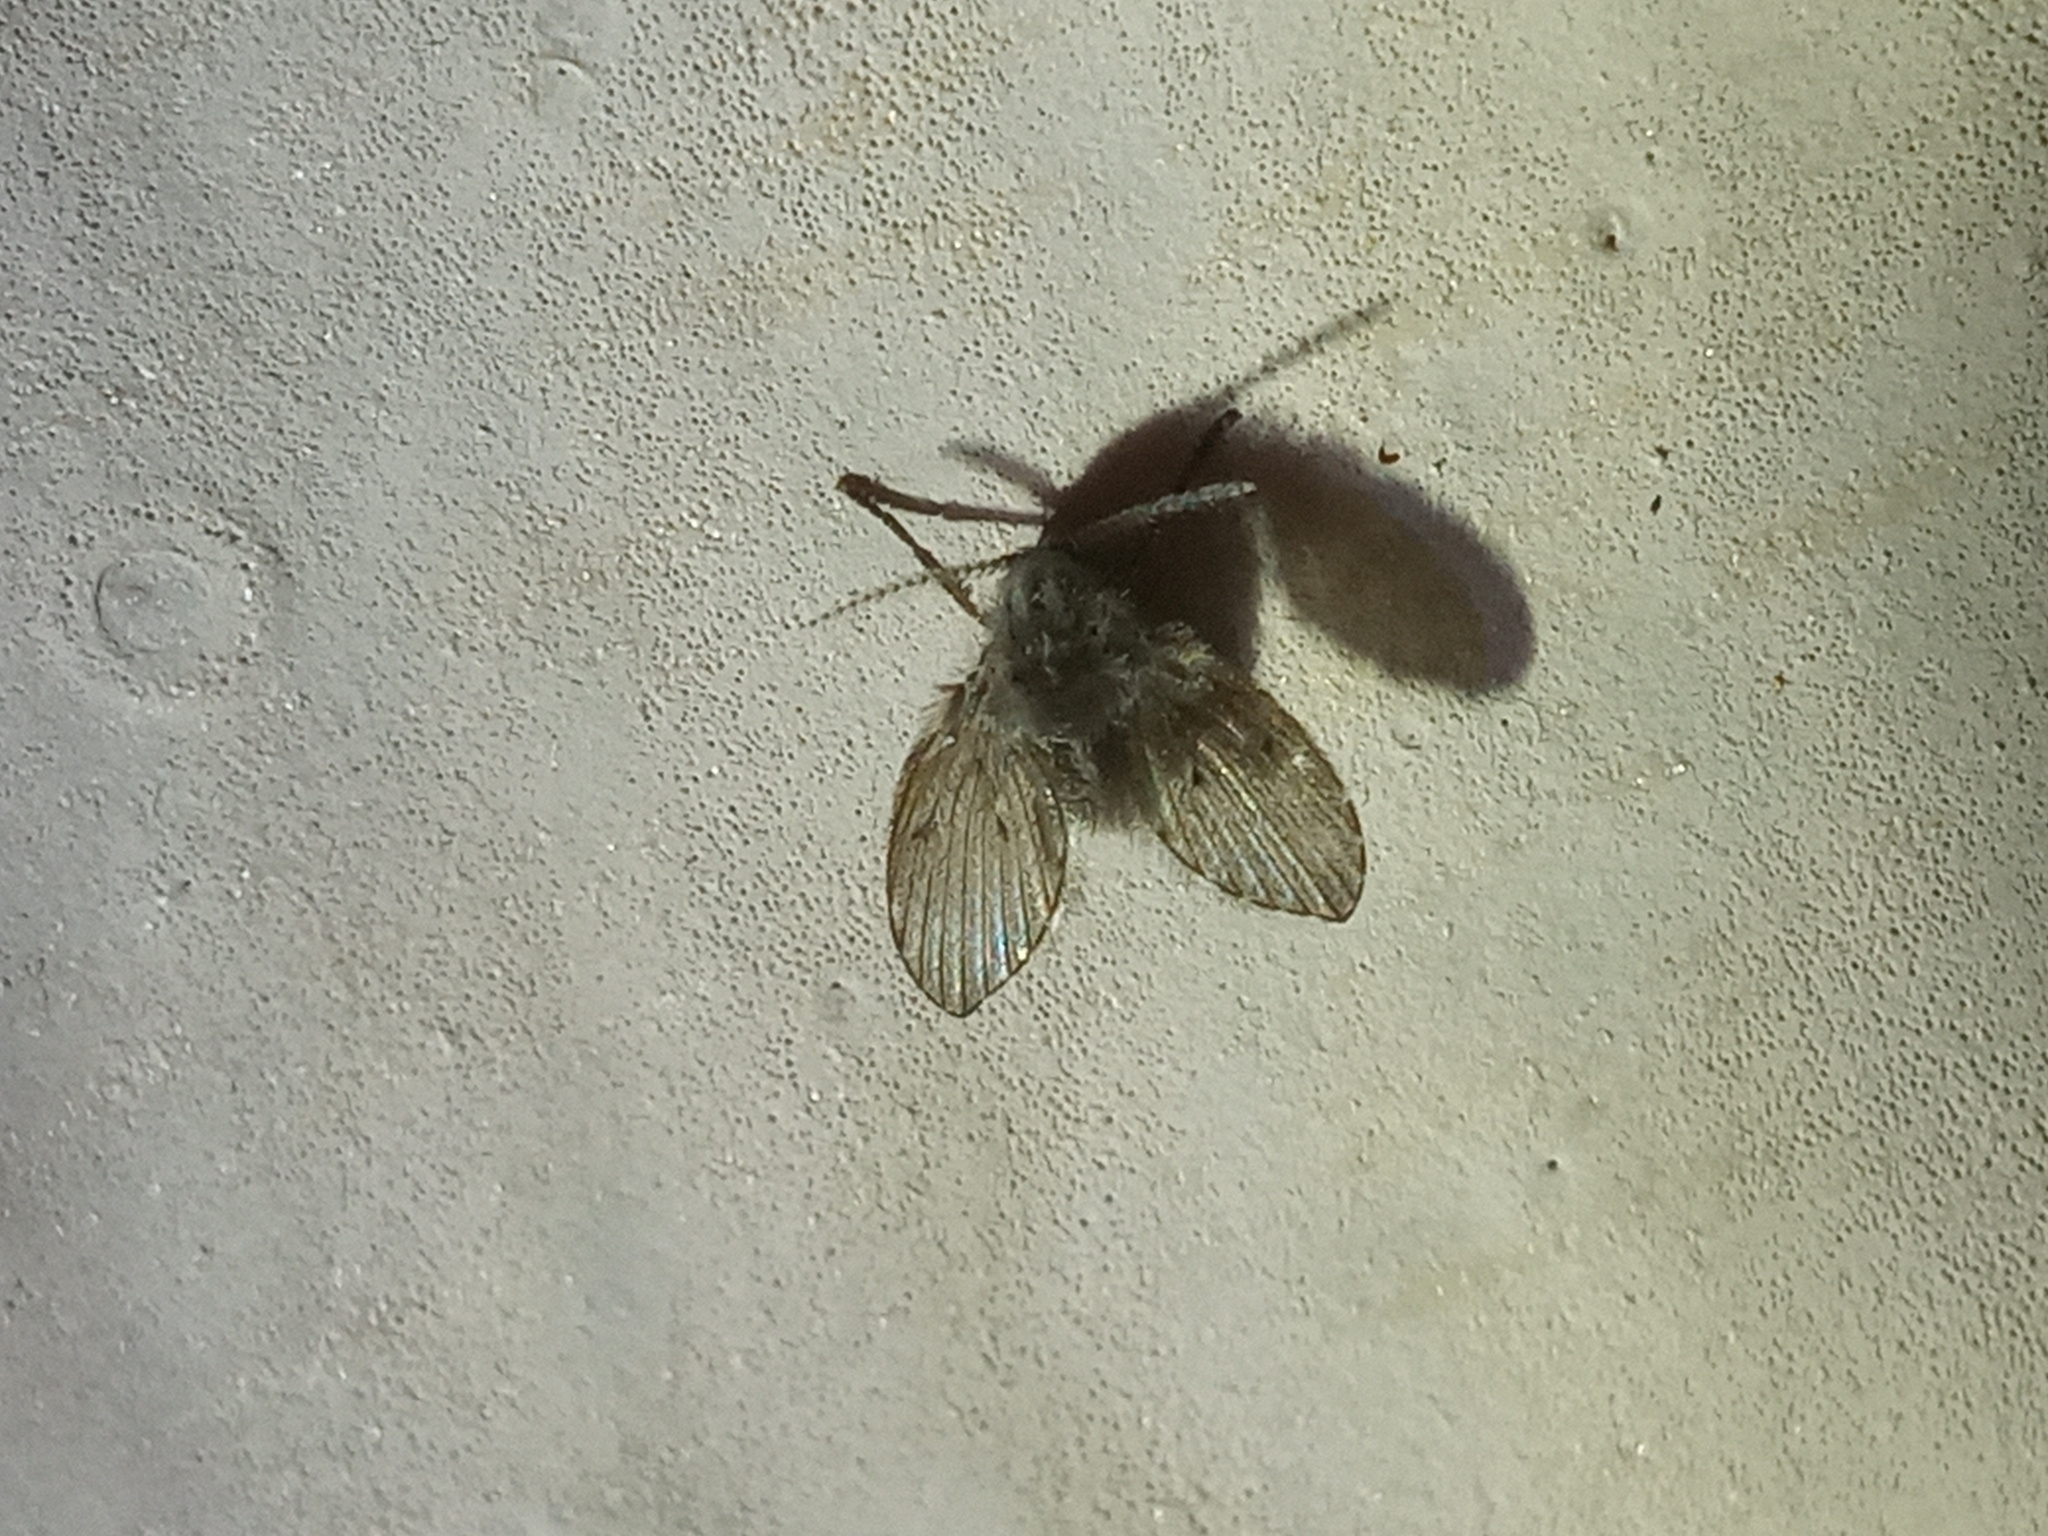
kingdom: Animalia
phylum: Arthropoda
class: Insecta
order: Diptera
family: Psychodidae
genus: Clogmia
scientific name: Clogmia albipunctatus
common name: White-spotted moth fly
